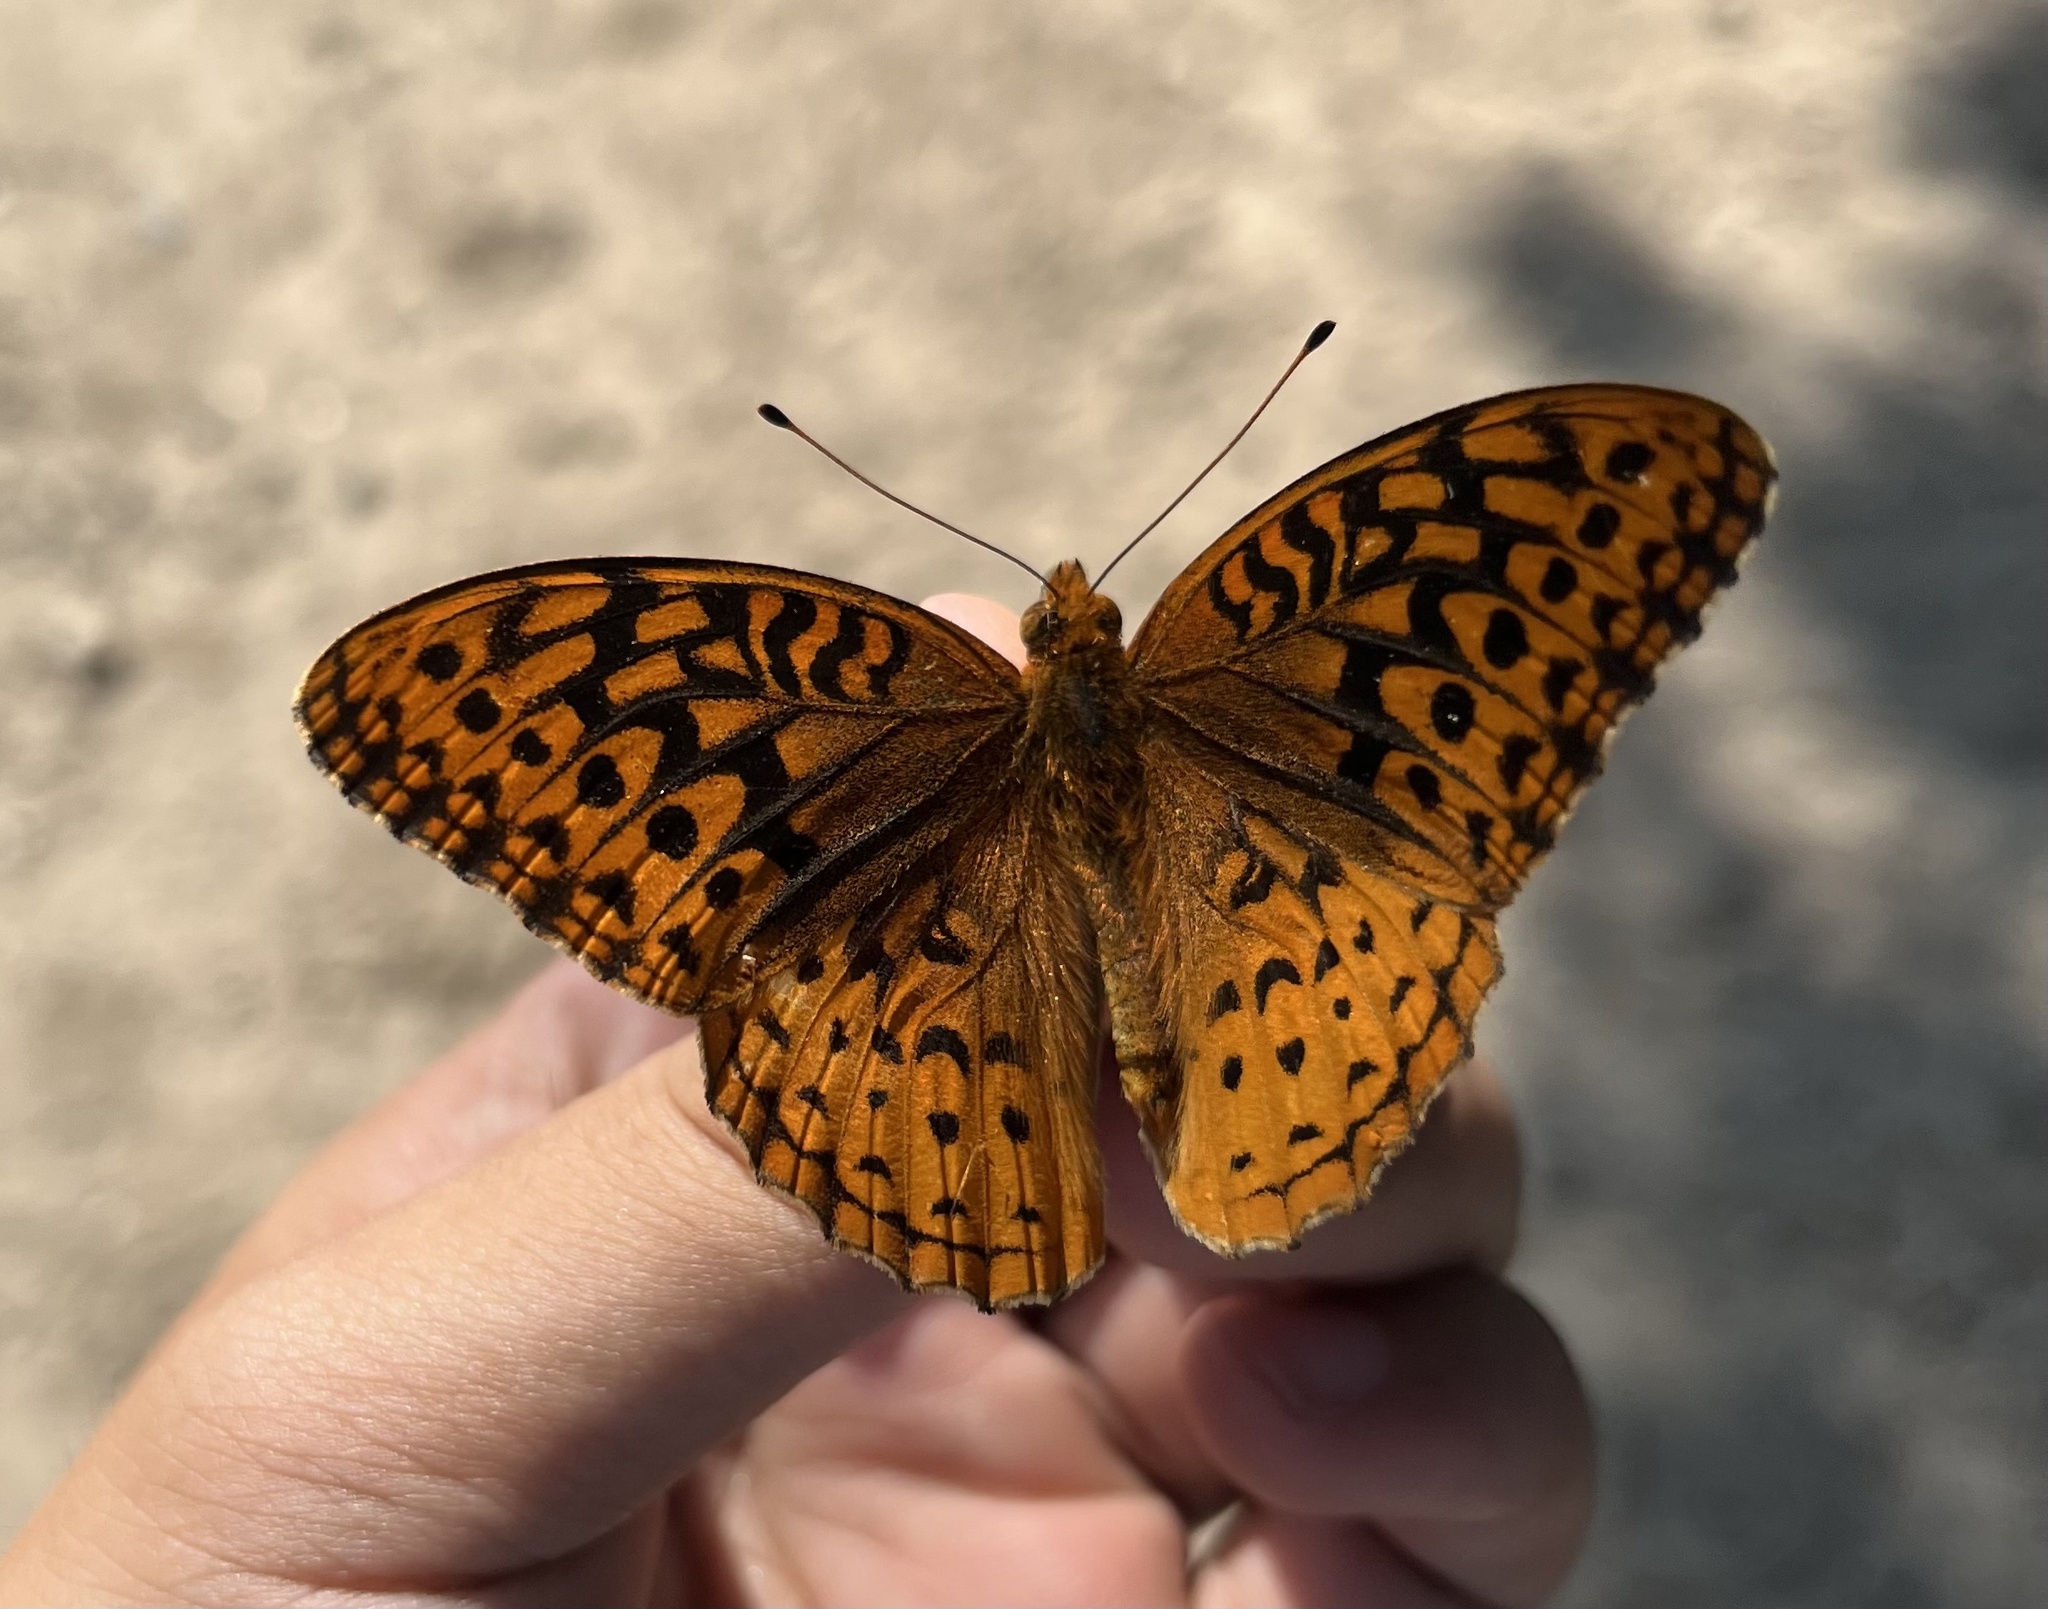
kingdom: Animalia
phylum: Arthropoda
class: Insecta
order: Lepidoptera
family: Nymphalidae
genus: Speyeria
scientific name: Speyeria cybele
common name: Great spangled fritillary
